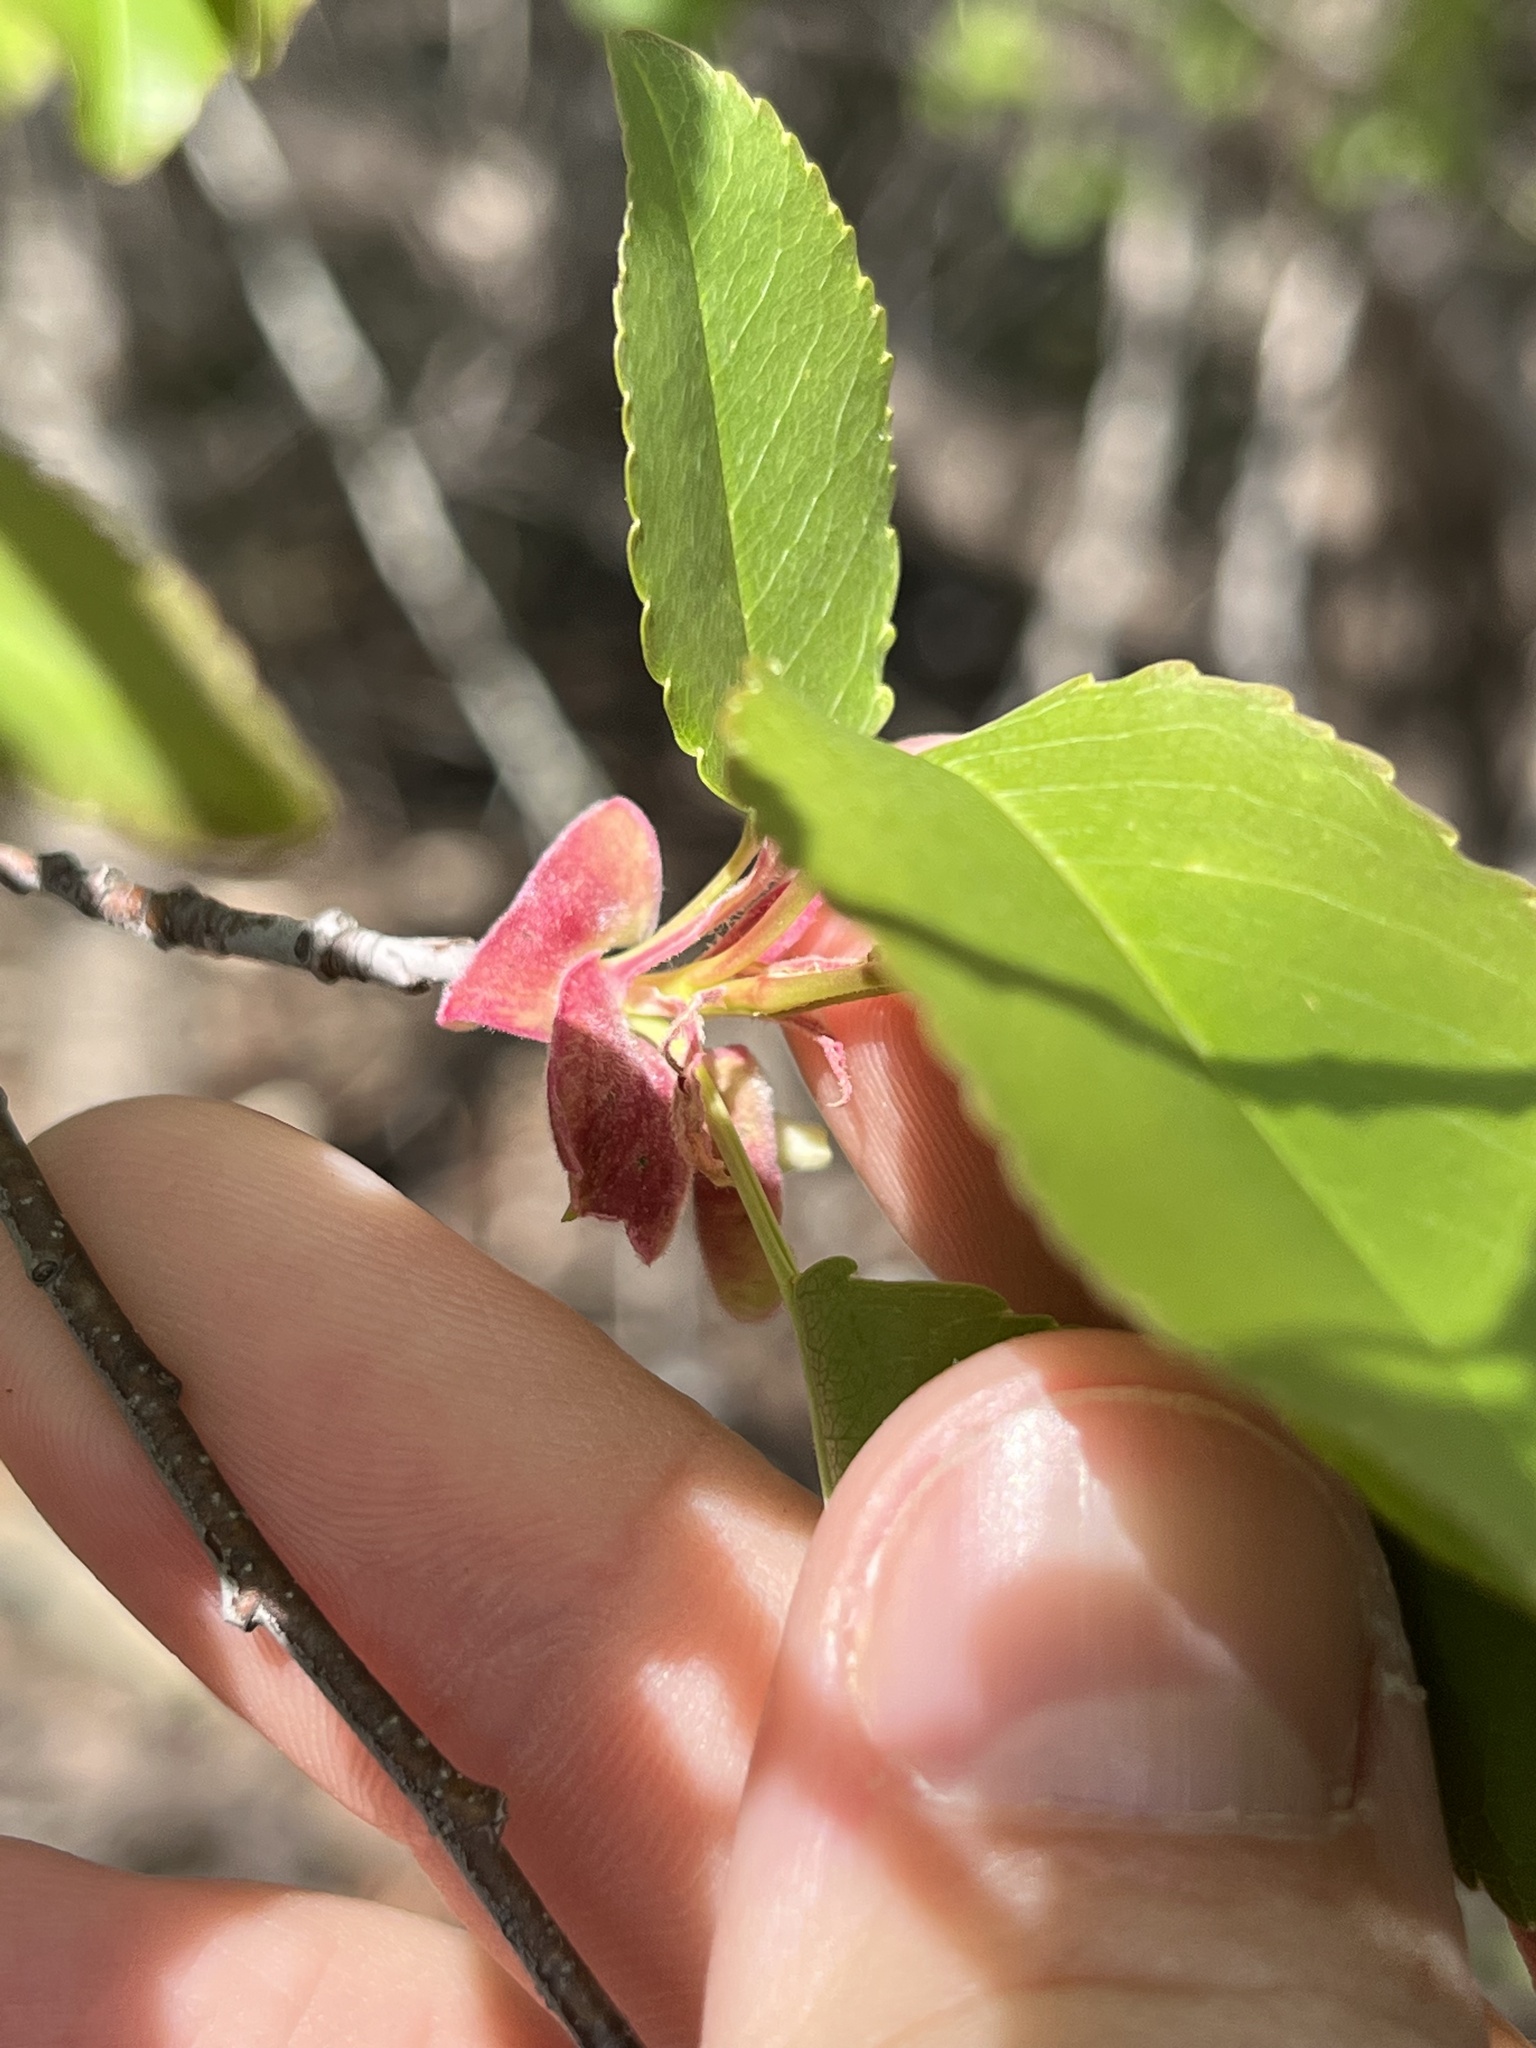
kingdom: Plantae
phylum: Tracheophyta
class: Magnoliopsida
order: Rosales
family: Rosaceae
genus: Prunus
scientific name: Prunus serotina
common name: Black cherry
